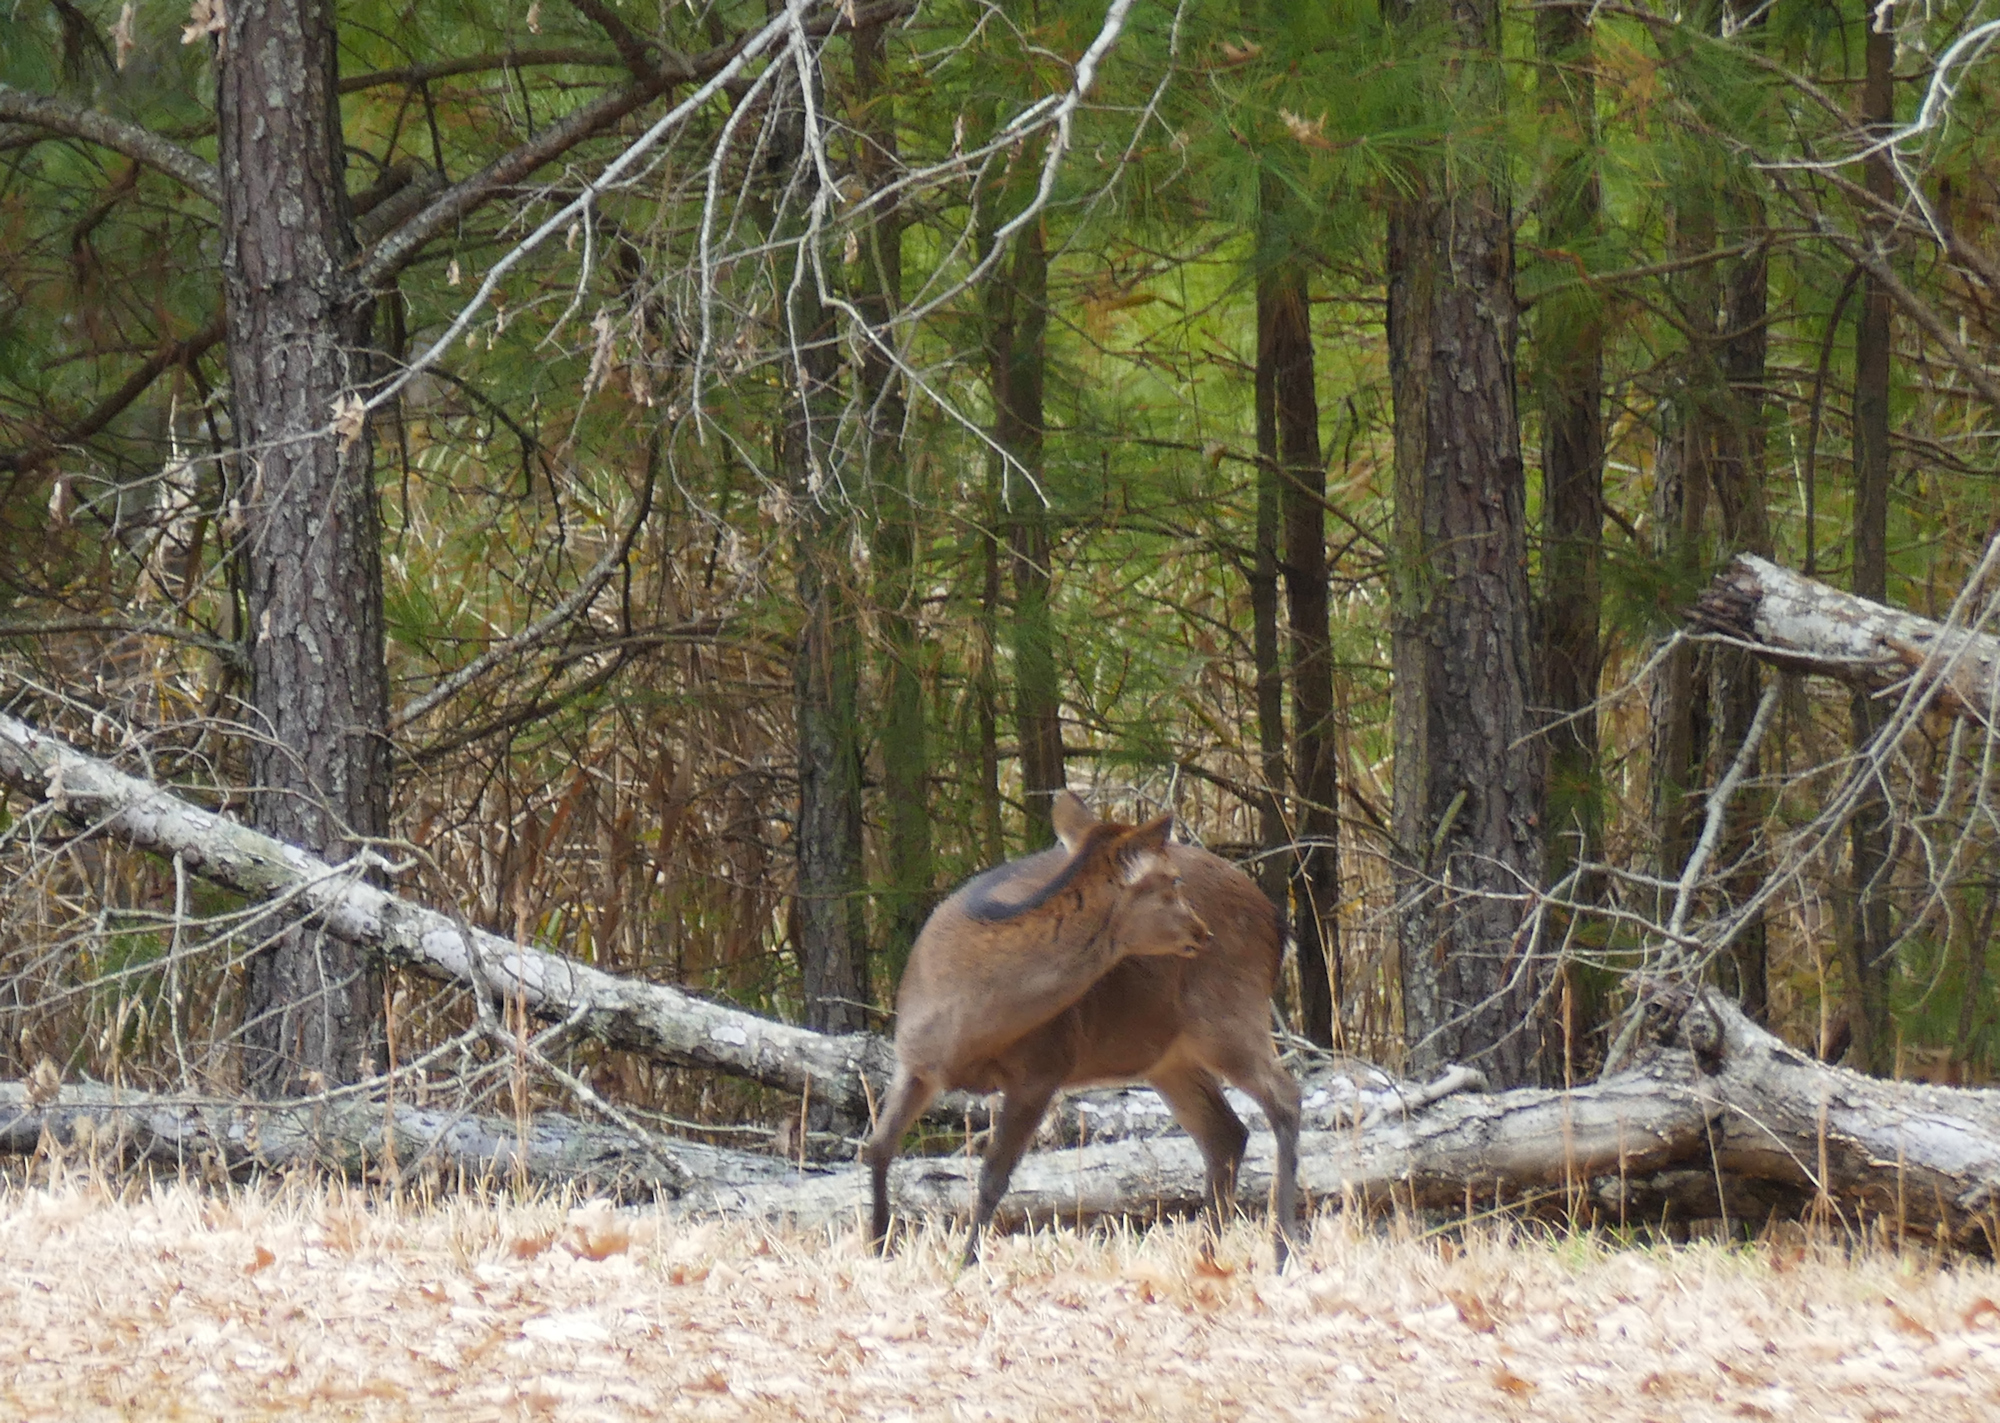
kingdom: Animalia
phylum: Chordata
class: Mammalia
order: Artiodactyla
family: Cervidae
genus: Cervus
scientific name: Cervus nippon
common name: Sika deer
